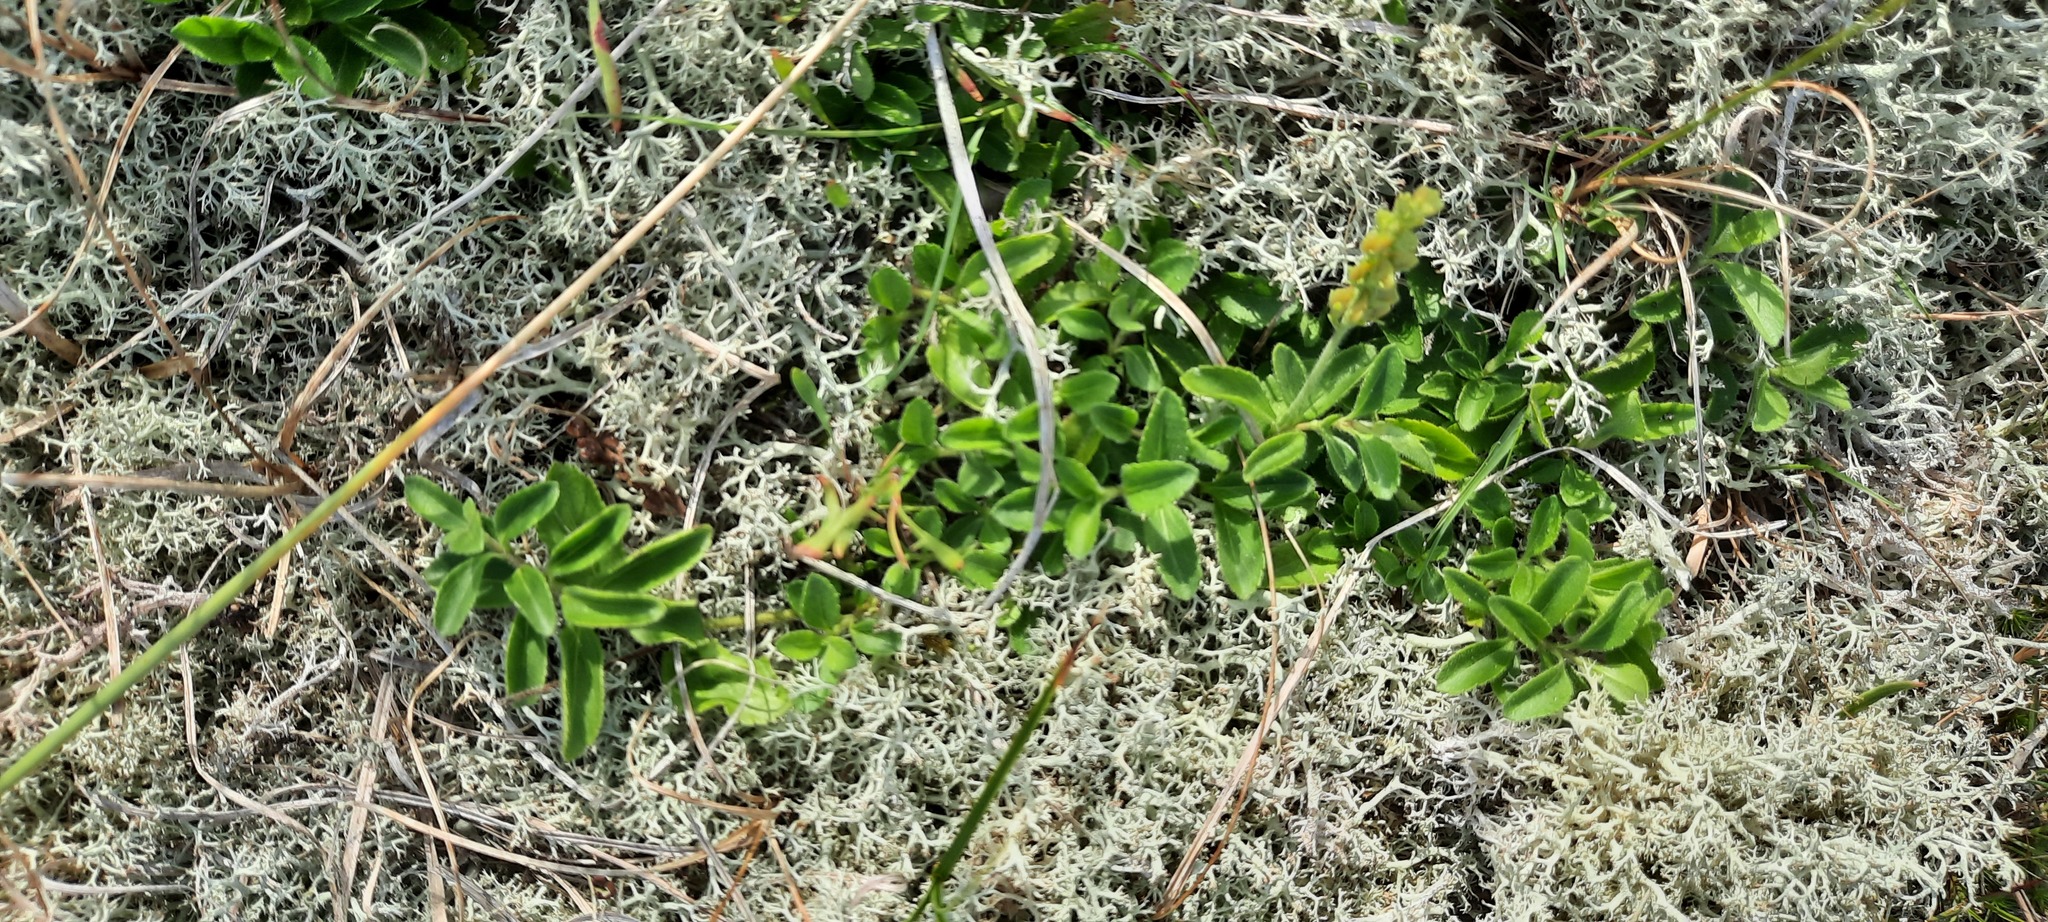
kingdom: Plantae
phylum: Tracheophyta
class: Magnoliopsida
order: Lamiales
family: Plantaginaceae
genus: Veronica
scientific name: Veronica officinalis
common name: Common speedwell
